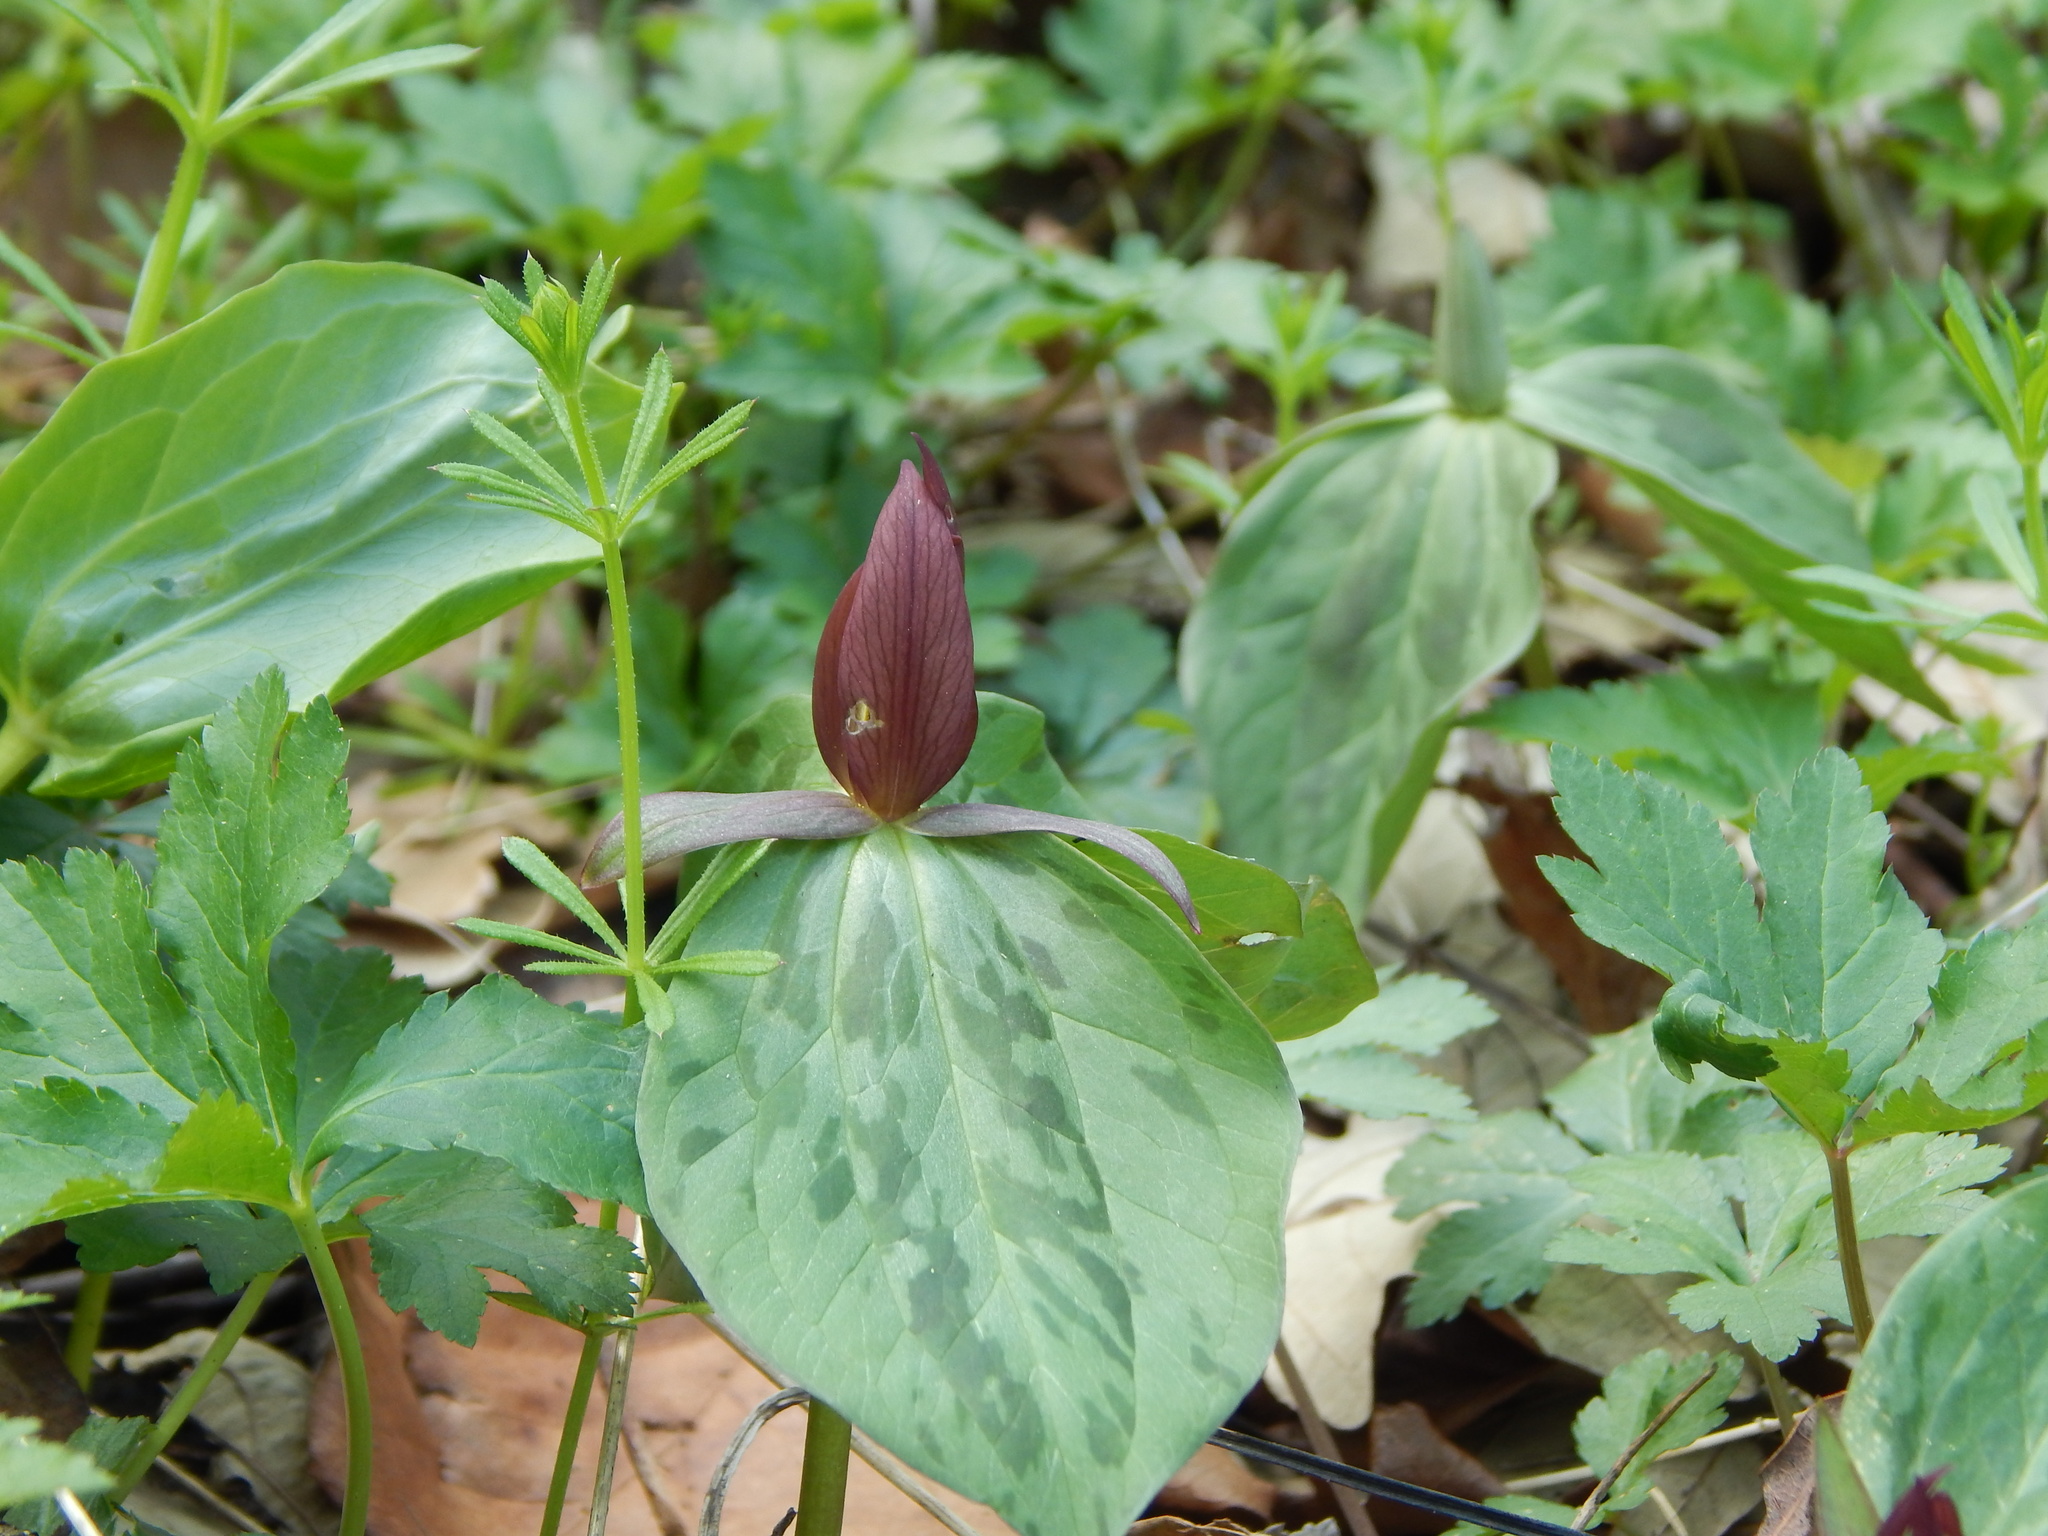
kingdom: Plantae
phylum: Tracheophyta
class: Liliopsida
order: Liliales
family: Melanthiaceae
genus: Trillium
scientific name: Trillium sessile
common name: Sessile trillium
